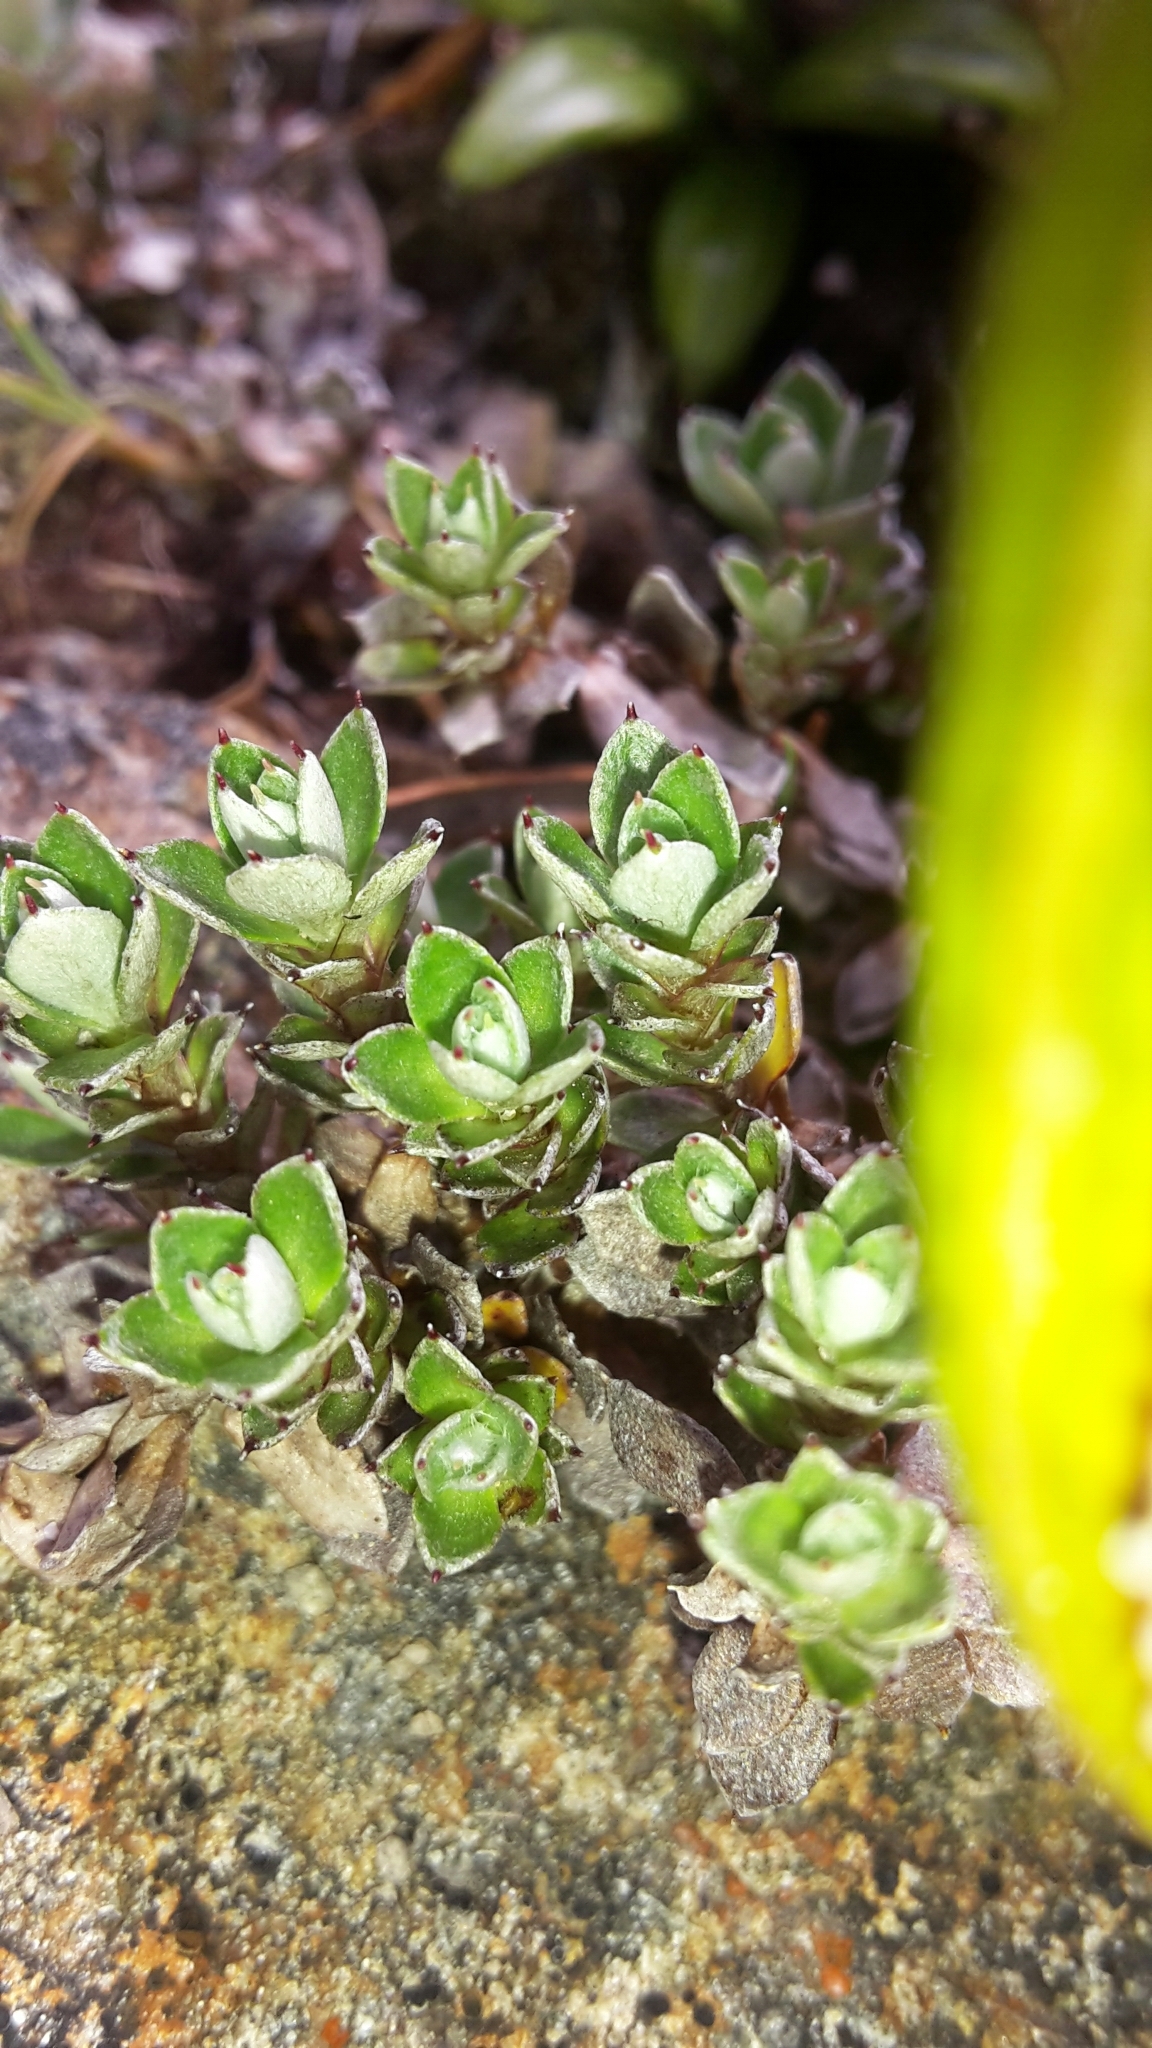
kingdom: Plantae
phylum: Tracheophyta
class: Magnoliopsida
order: Asterales
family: Asteraceae
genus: Anaphalioides
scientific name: Anaphalioides bellidioides
